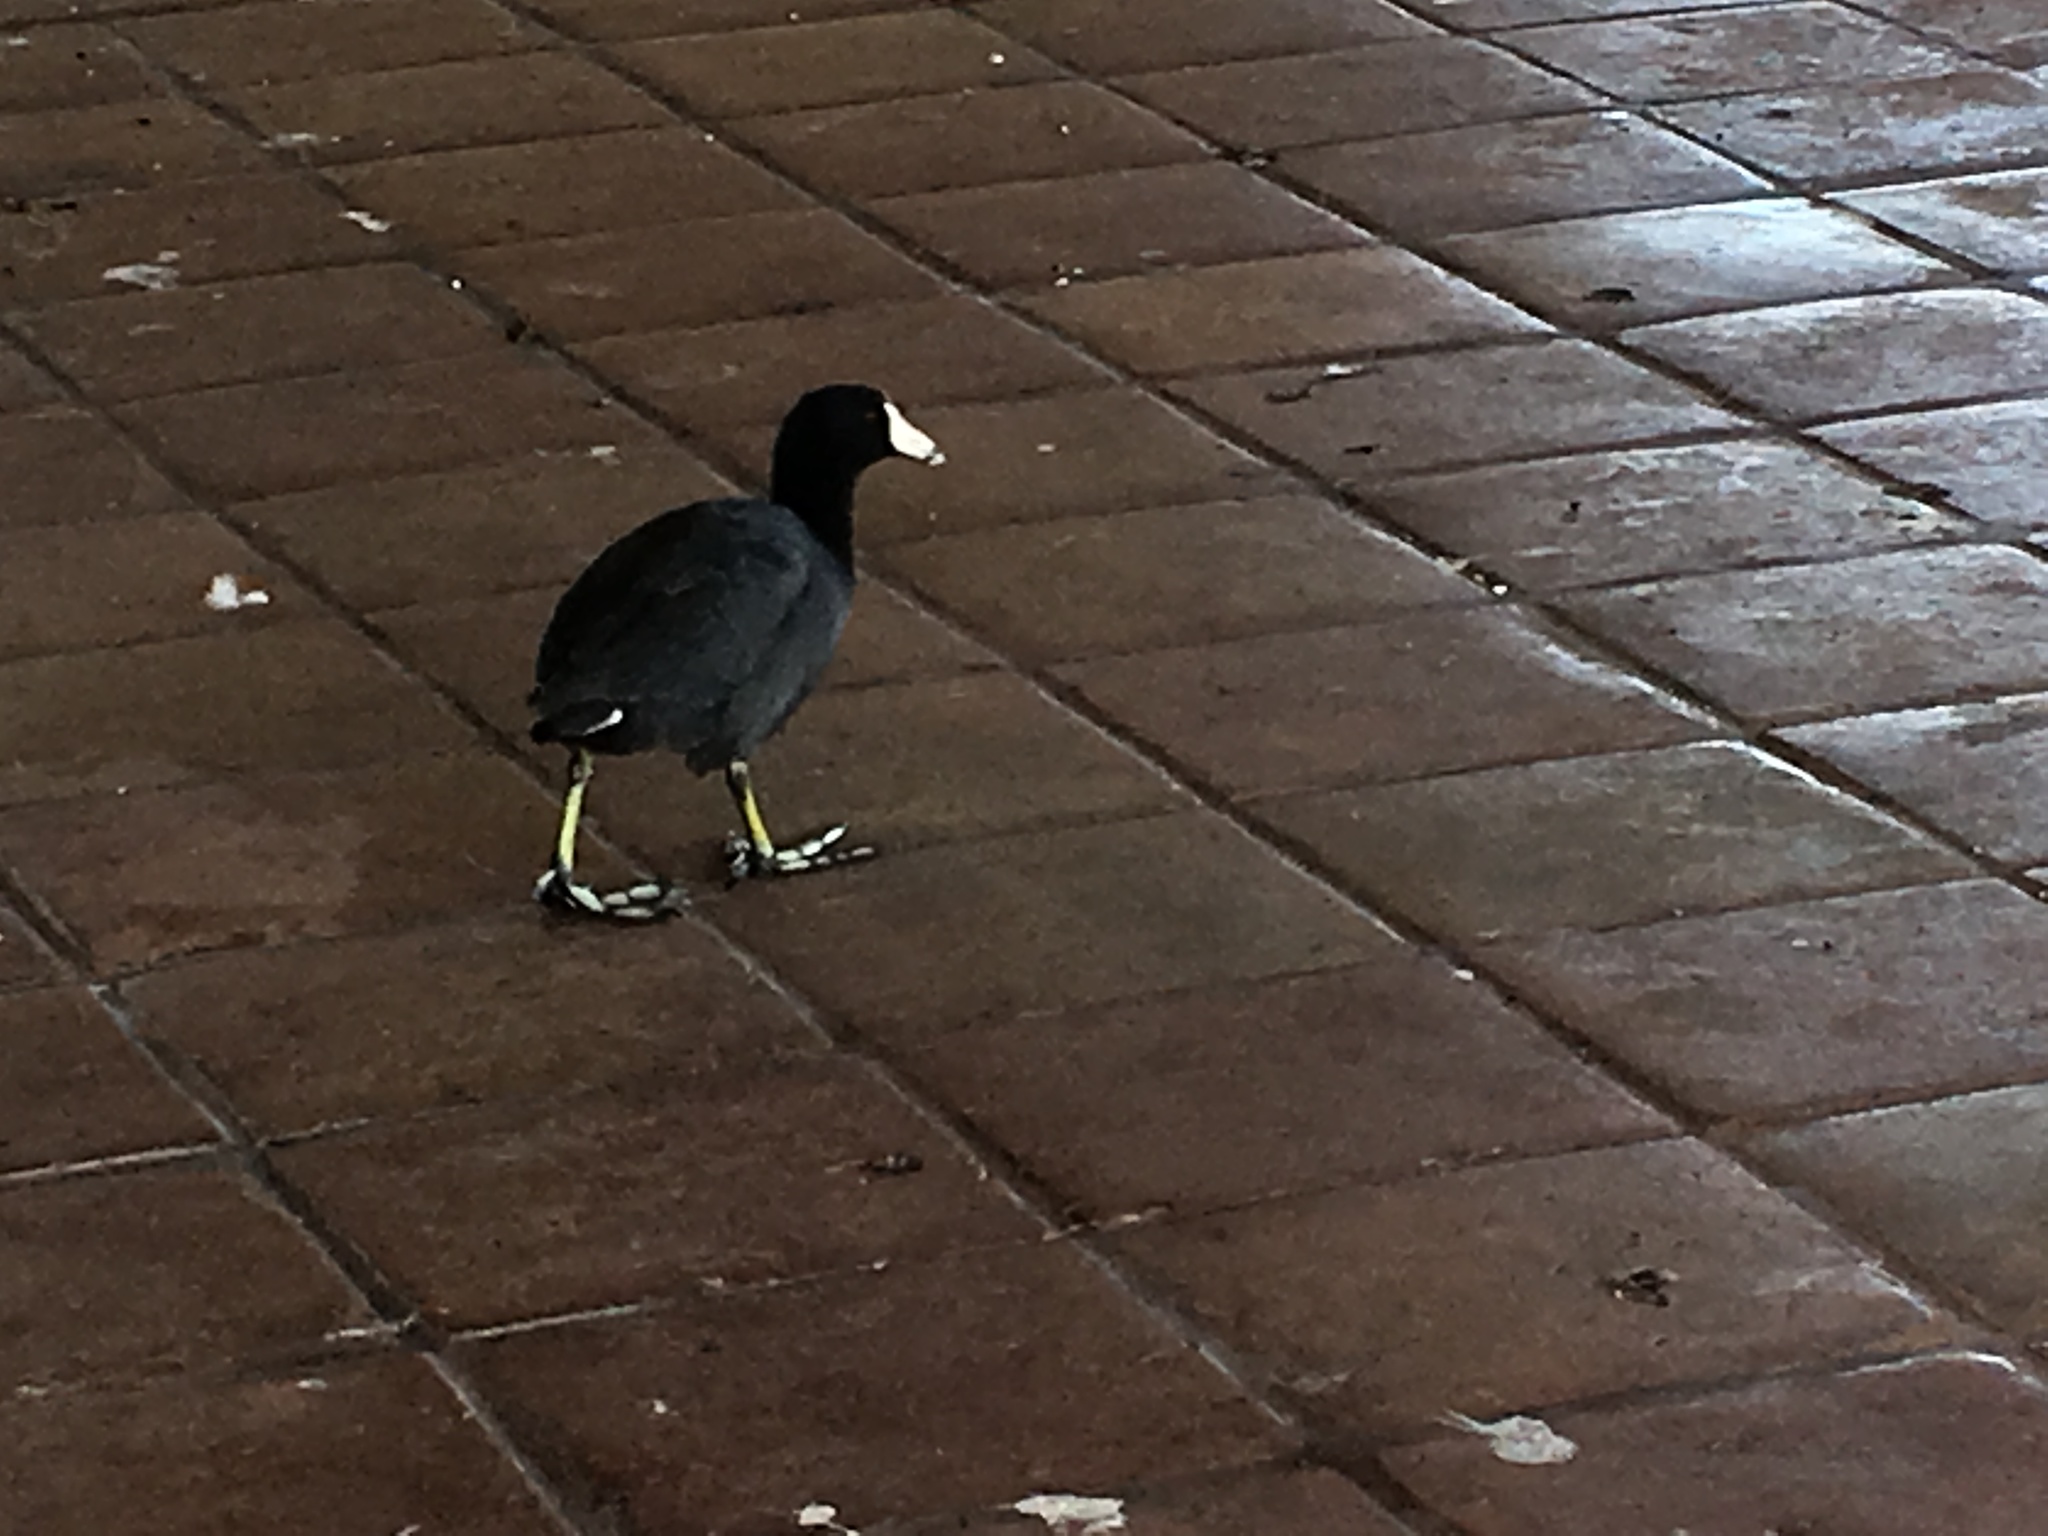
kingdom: Animalia
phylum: Chordata
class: Aves
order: Gruiformes
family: Rallidae
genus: Fulica
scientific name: Fulica americana
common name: American coot
